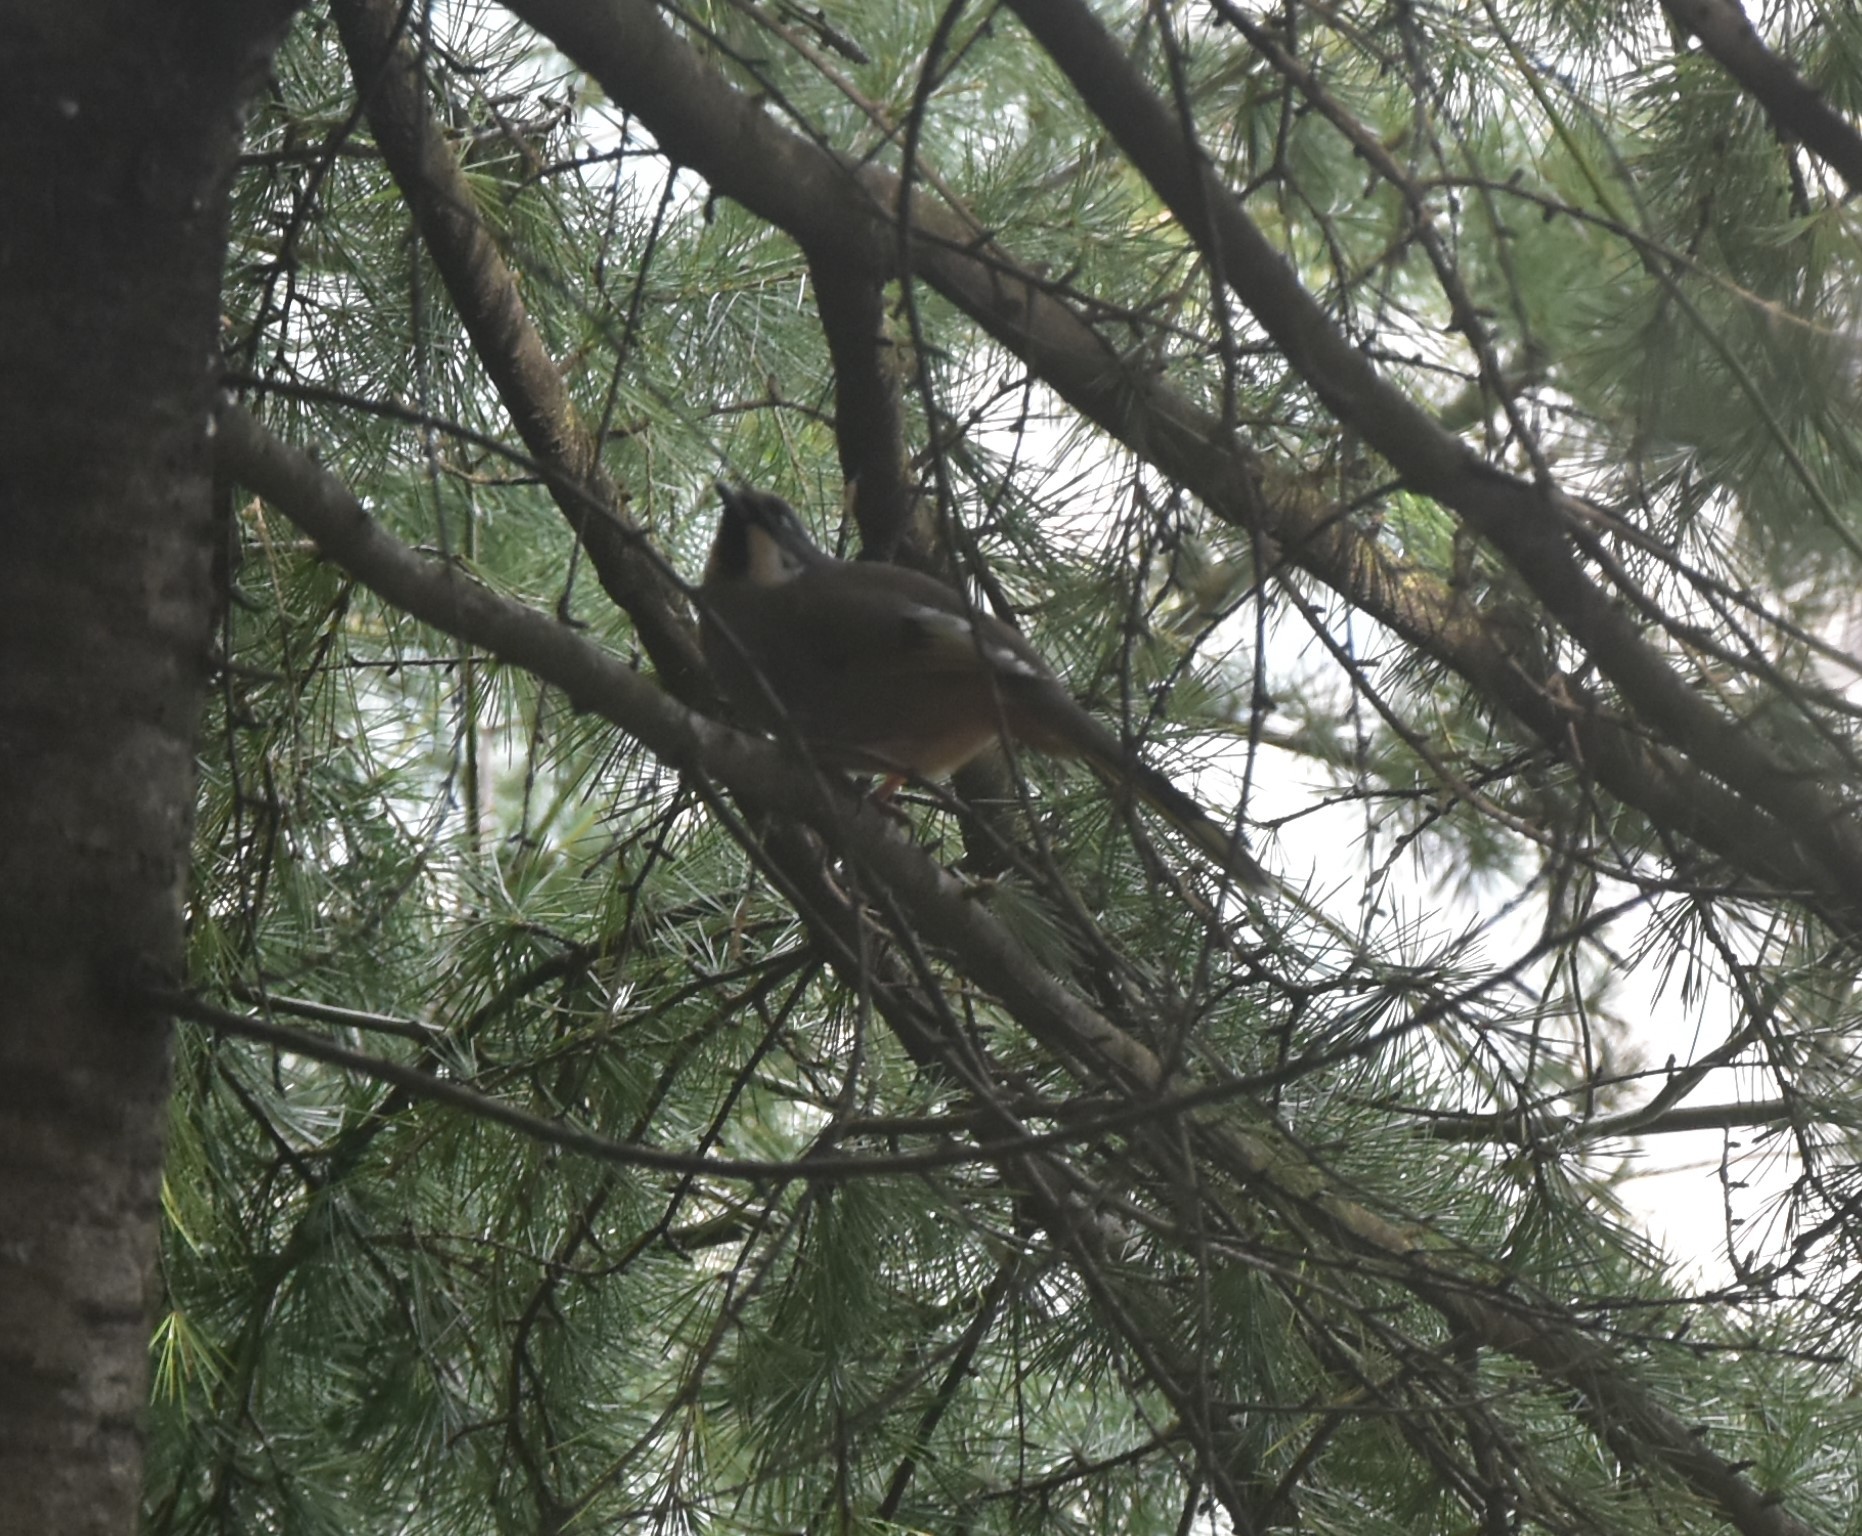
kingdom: Animalia
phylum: Chordata
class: Aves
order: Passeriformes
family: Leiothrichidae
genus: Trochalopteron
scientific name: Trochalopteron variegatum
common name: Variegated laughingthrush
